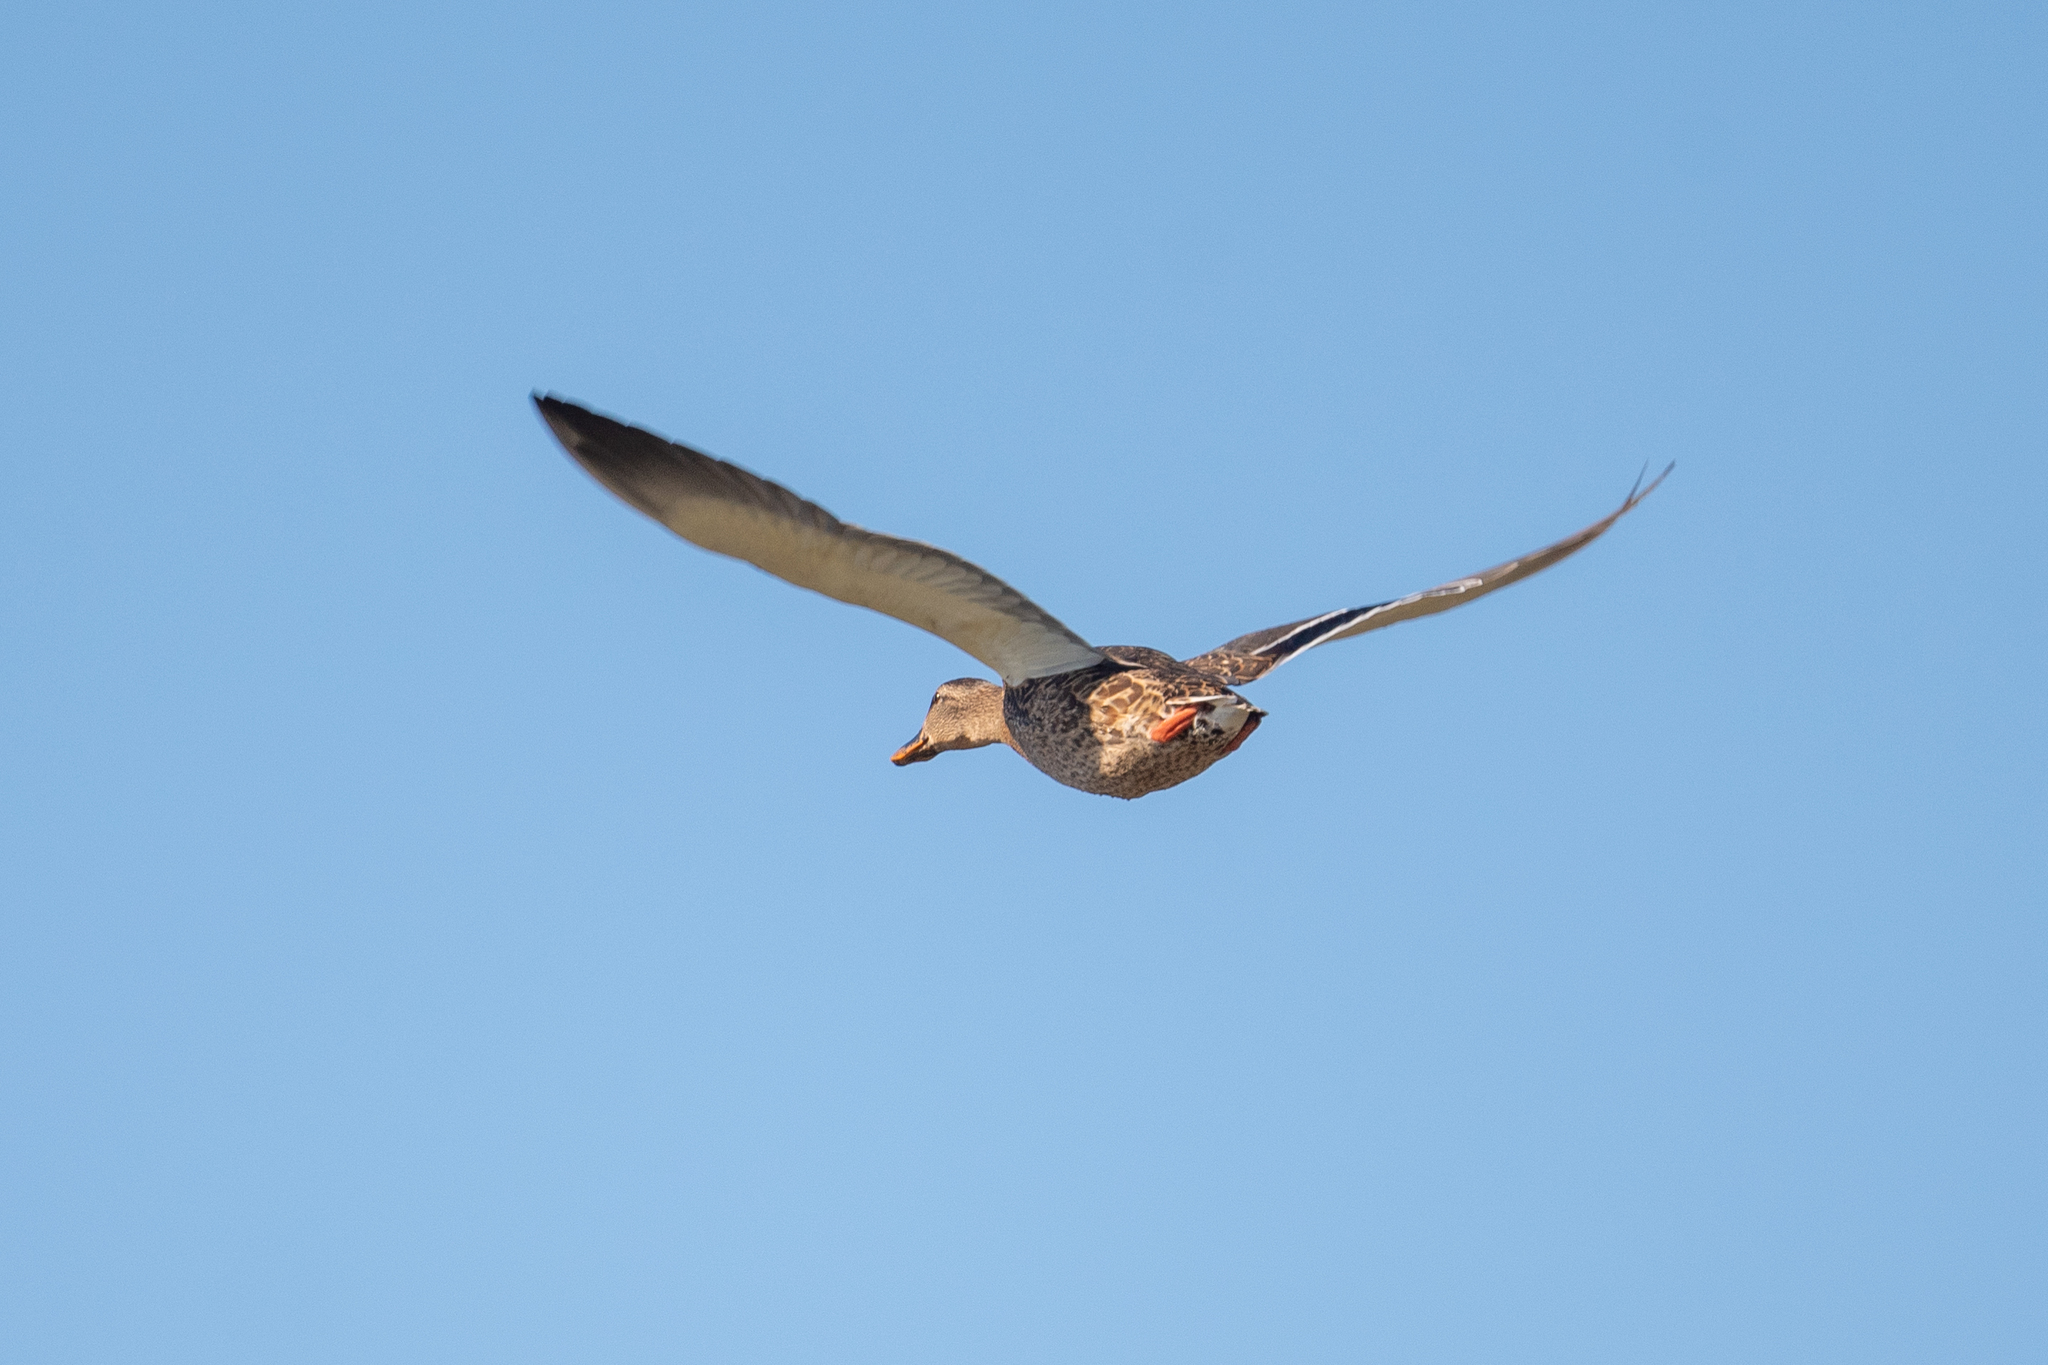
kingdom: Animalia
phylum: Chordata
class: Aves
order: Anseriformes
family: Anatidae
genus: Anas
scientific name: Anas platyrhynchos
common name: Mallard
